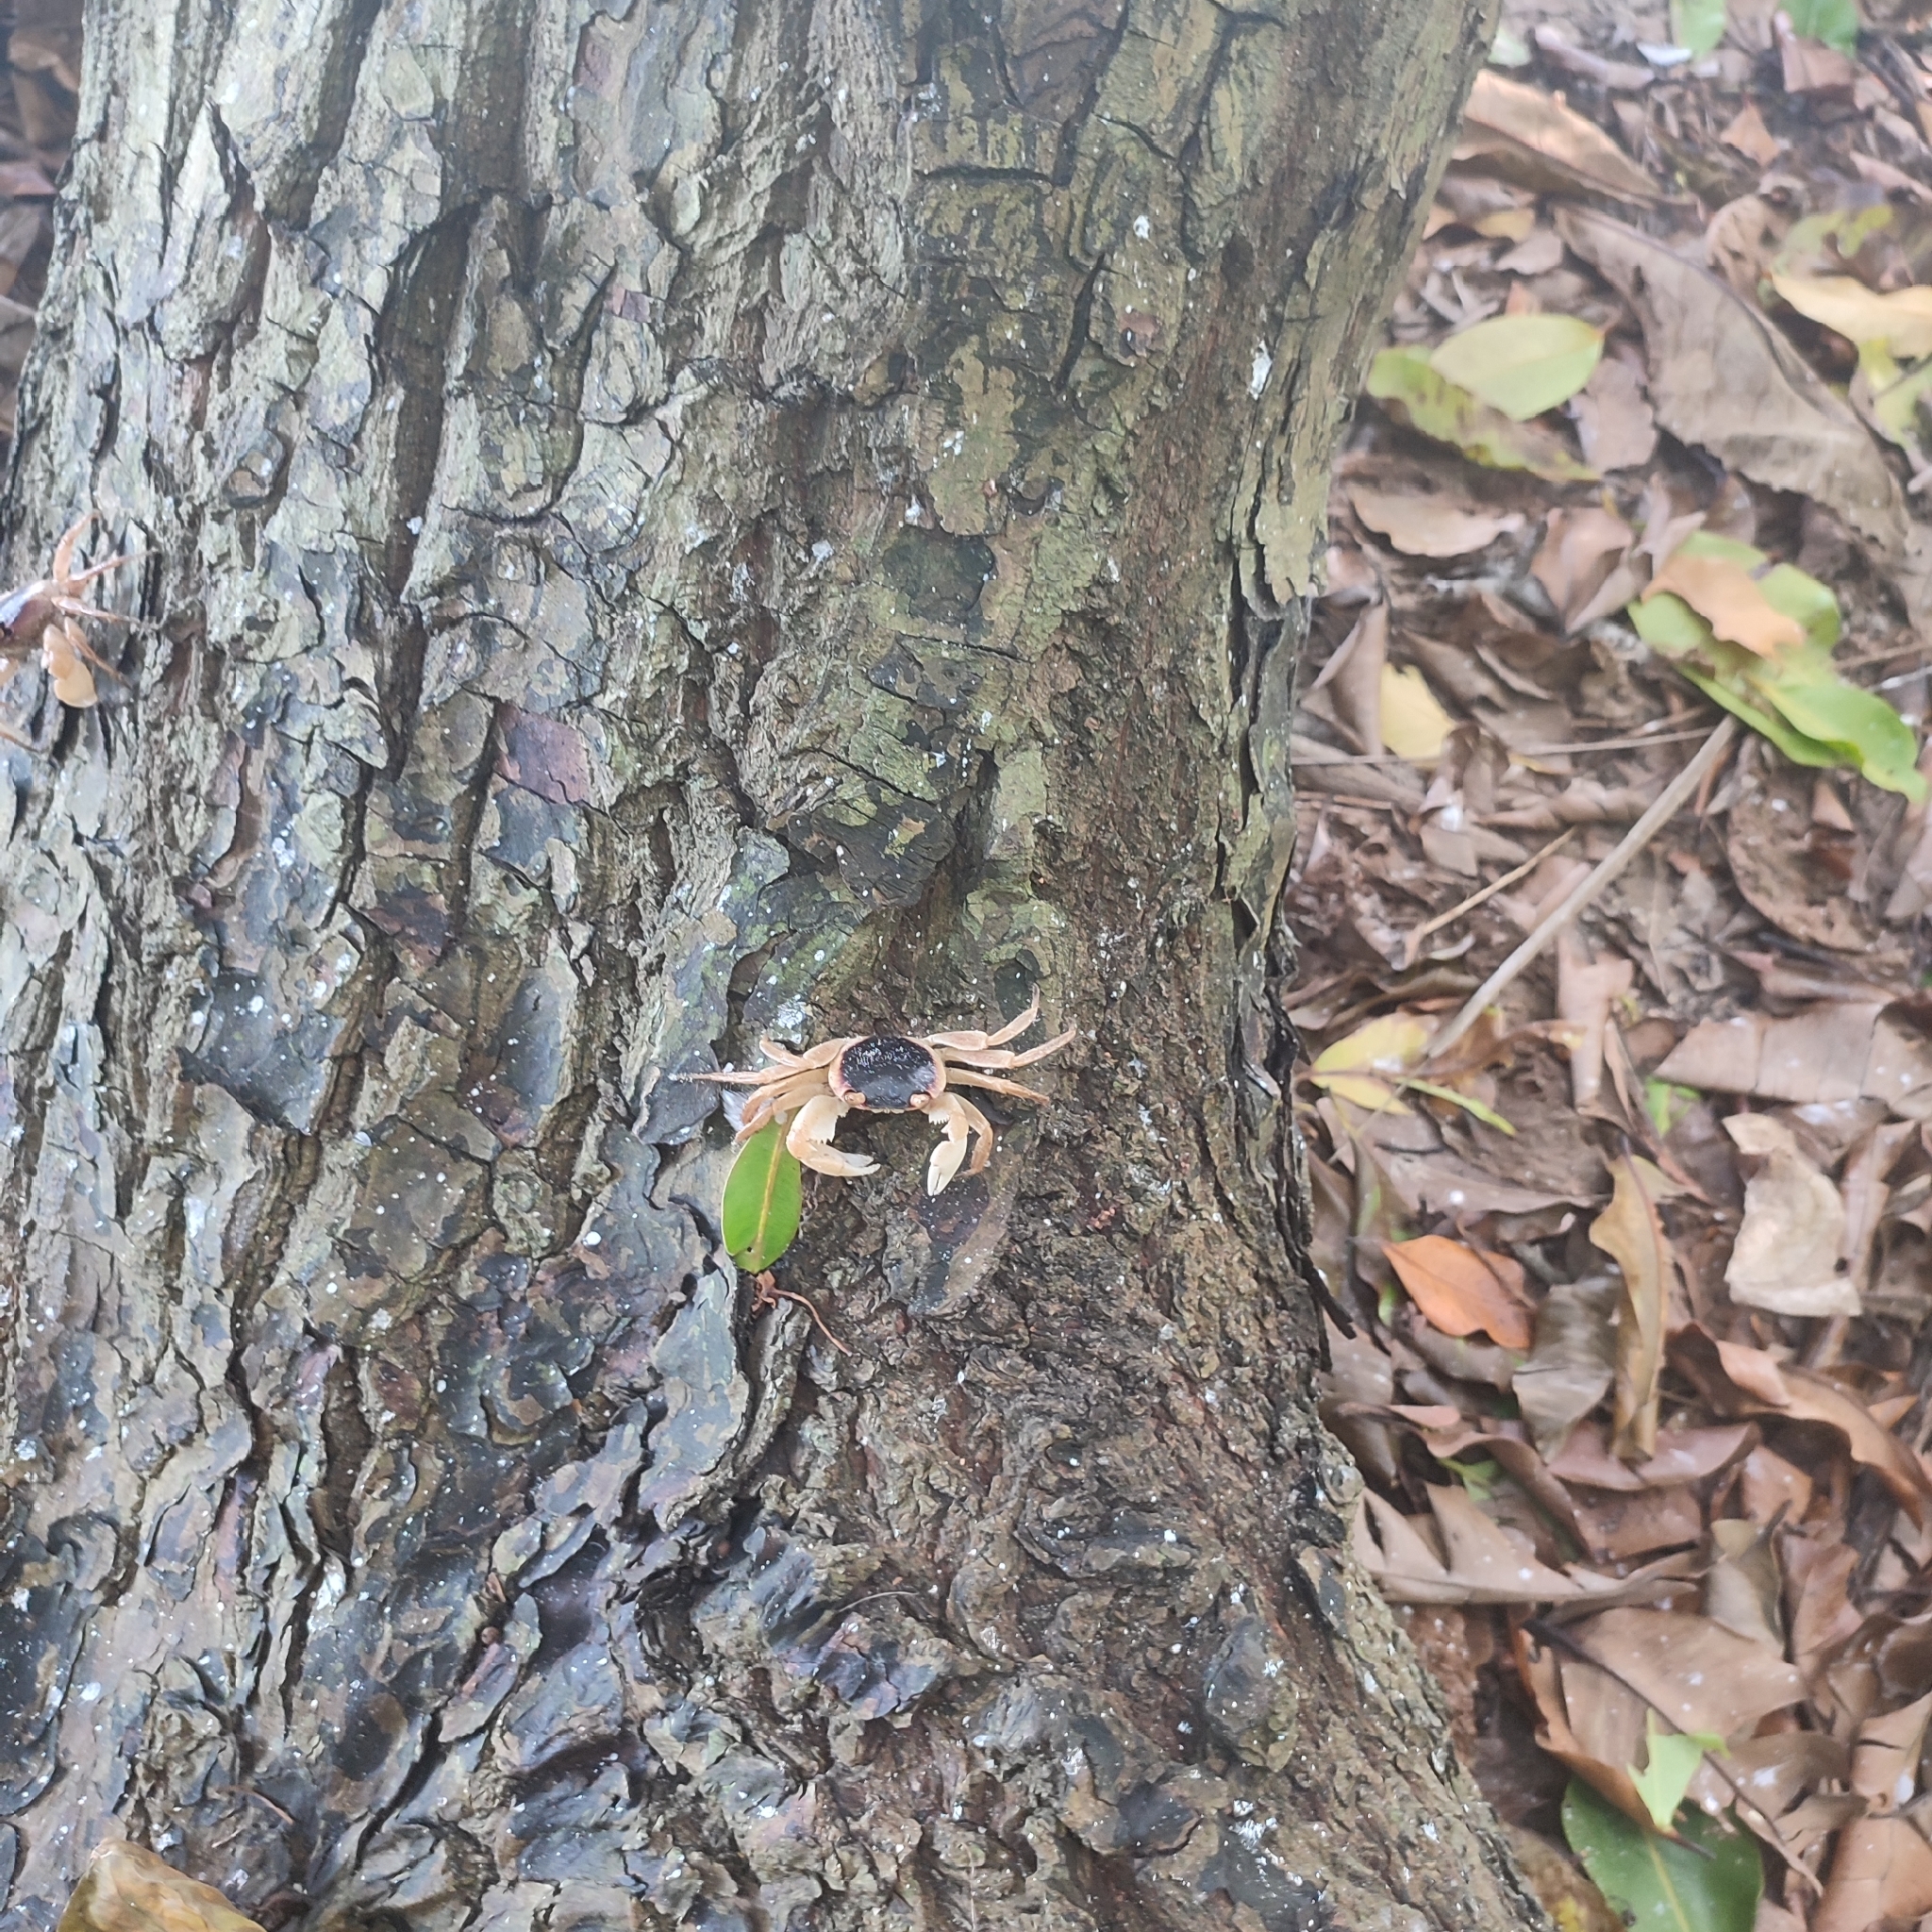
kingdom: Animalia
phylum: Arthropoda
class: Malacostraca
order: Decapoda
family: Grapsidae
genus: Geograpsus
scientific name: Geograpsus grayi
